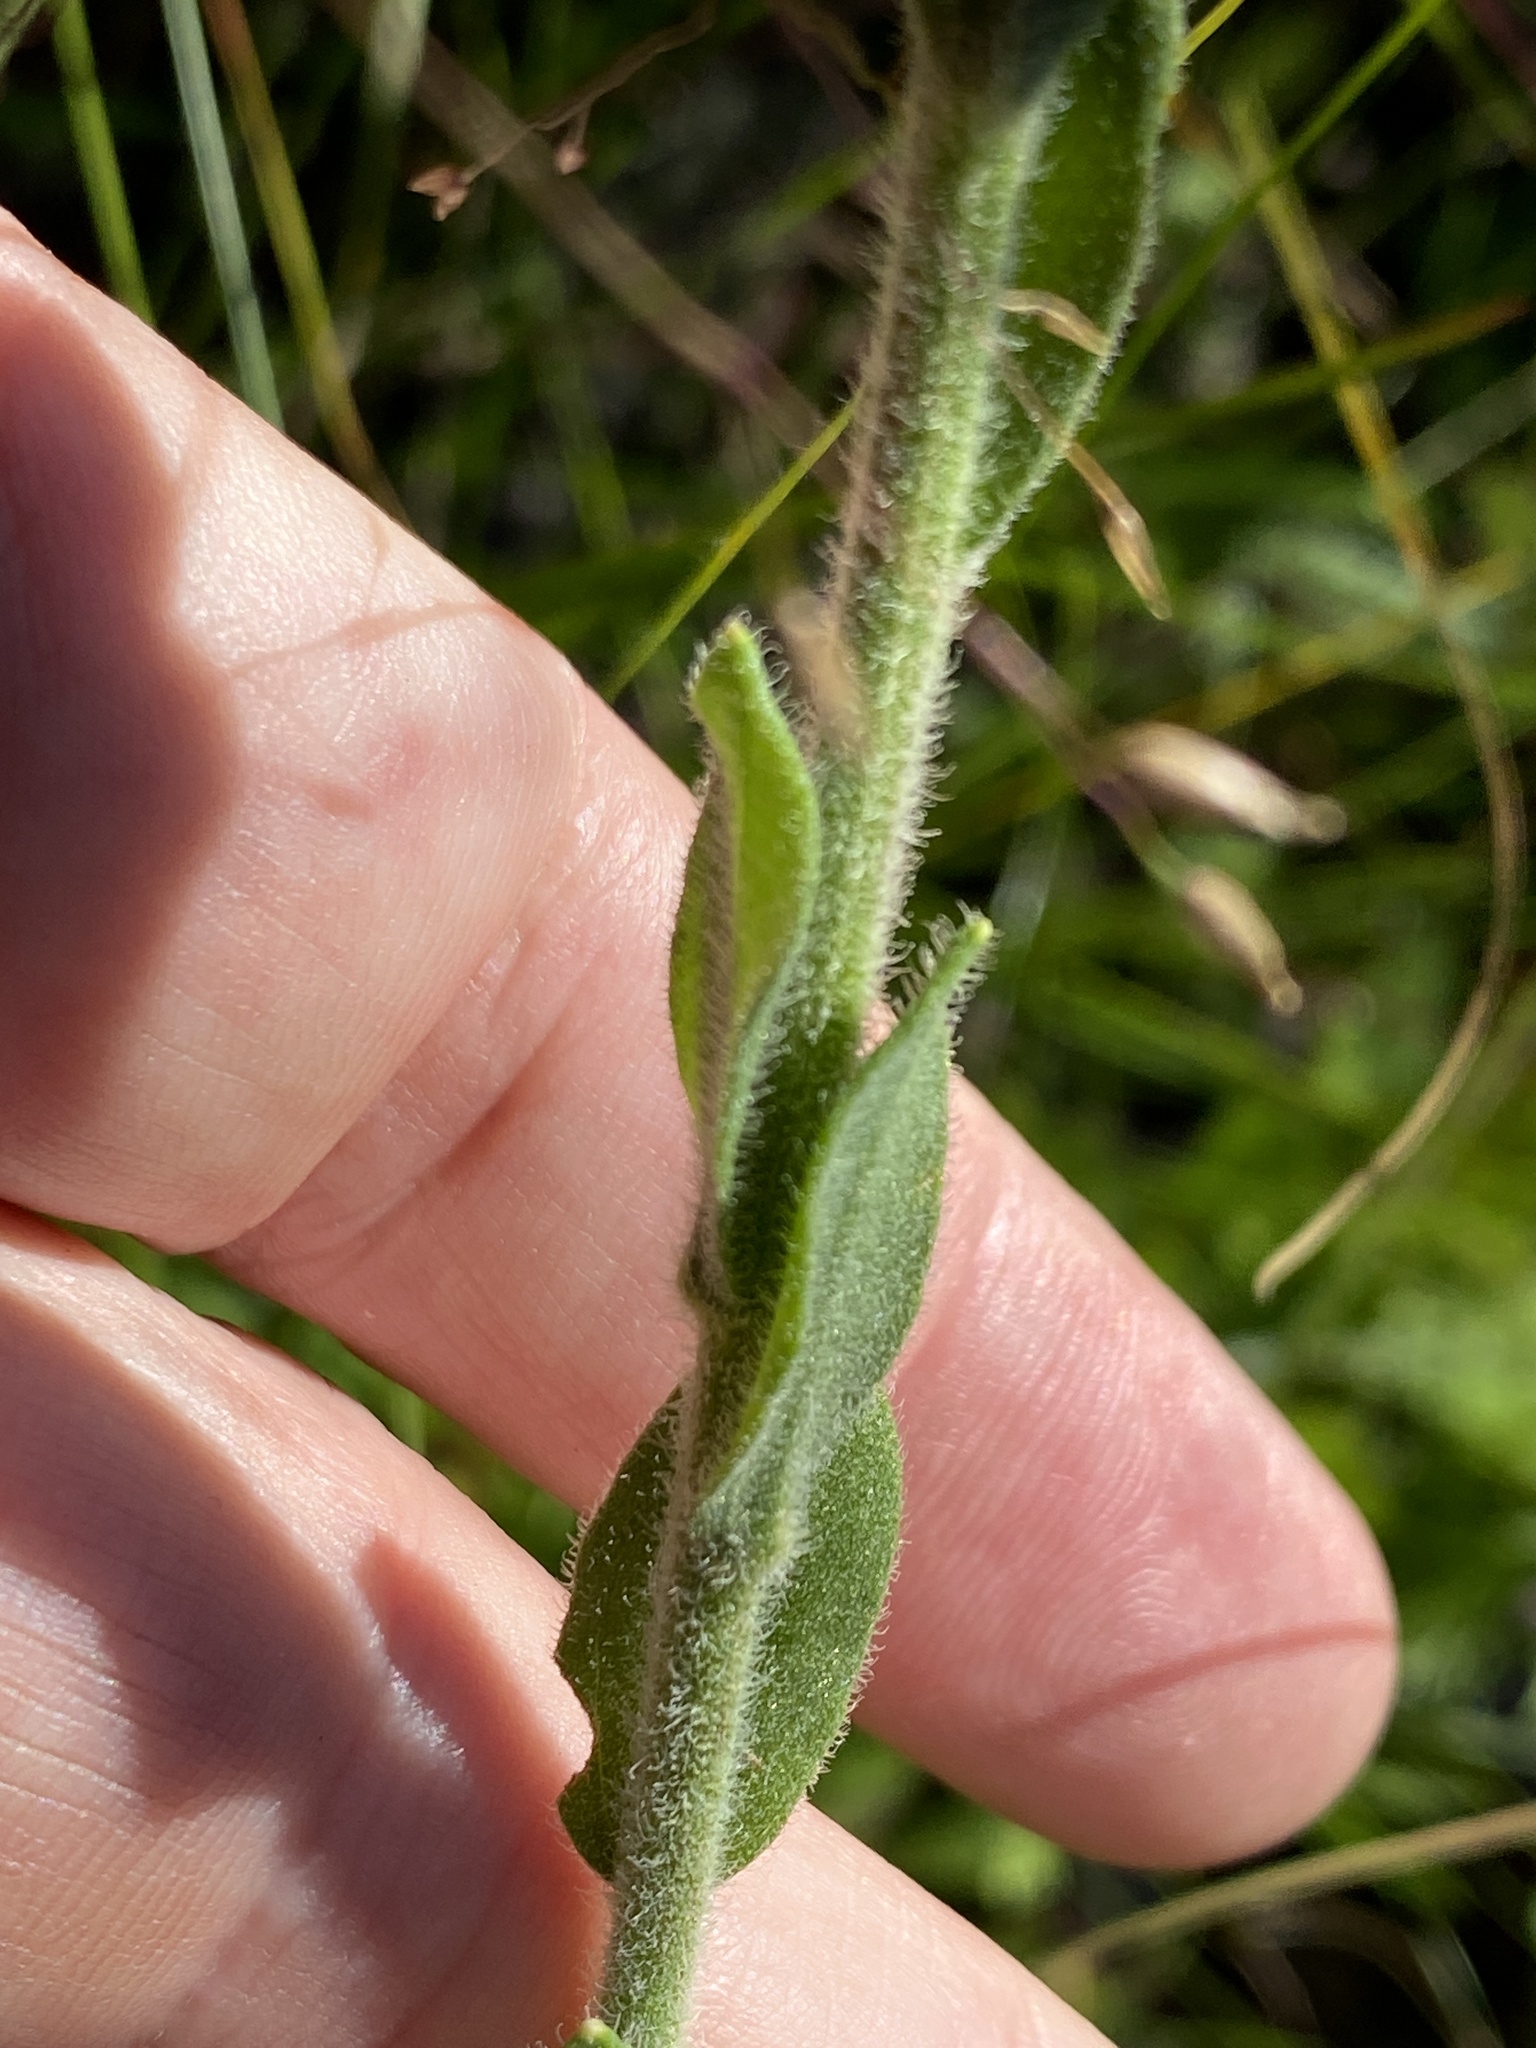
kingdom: Plantae
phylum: Tracheophyta
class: Magnoliopsida
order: Asterales
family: Asteraceae
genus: Carphephorus
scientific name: Carphephorus tomentosus
